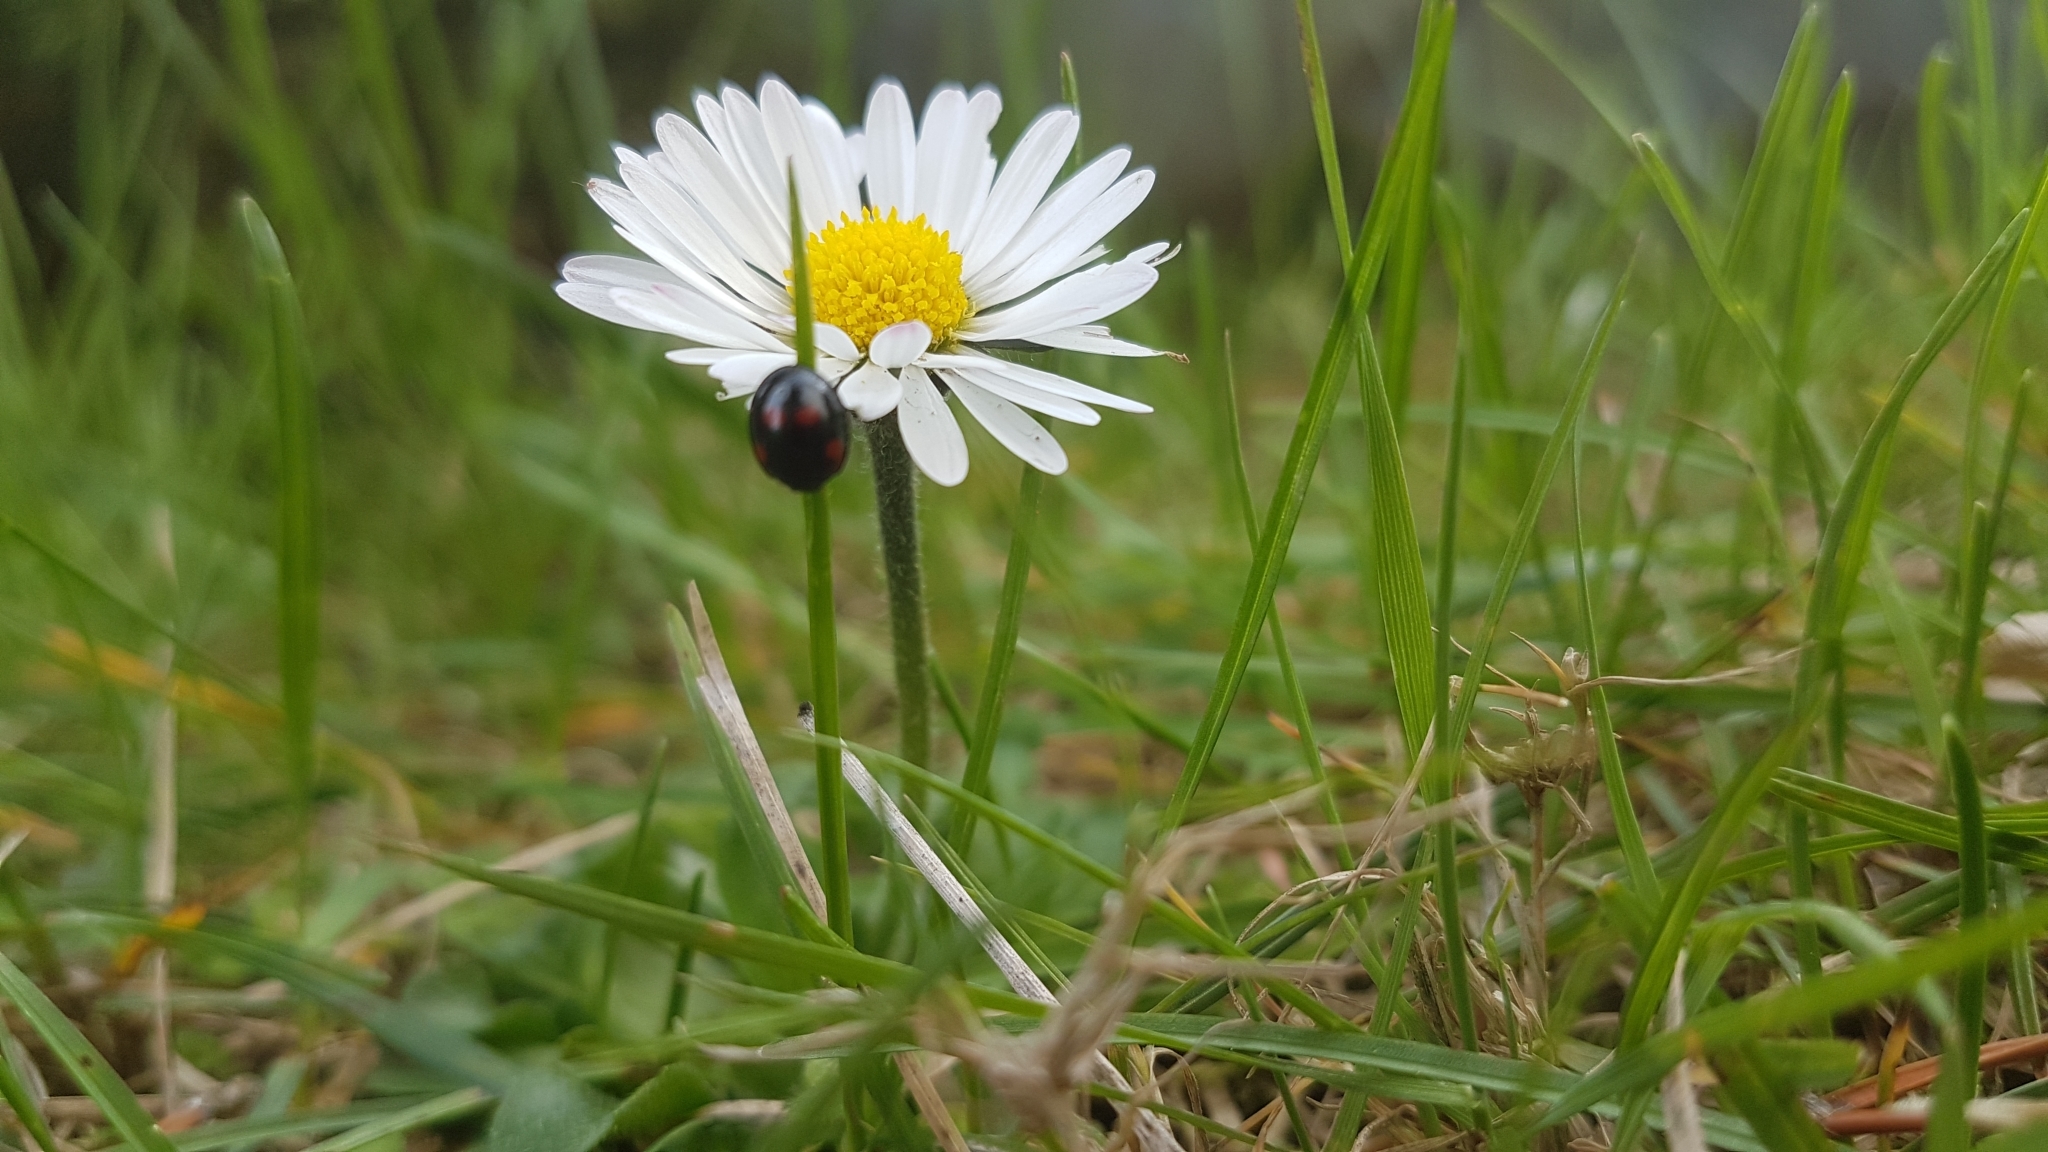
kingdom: Animalia
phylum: Arthropoda
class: Insecta
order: Coleoptera
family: Coccinellidae
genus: Brumus
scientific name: Brumus quadripustulatus
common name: Ladybird beetle
